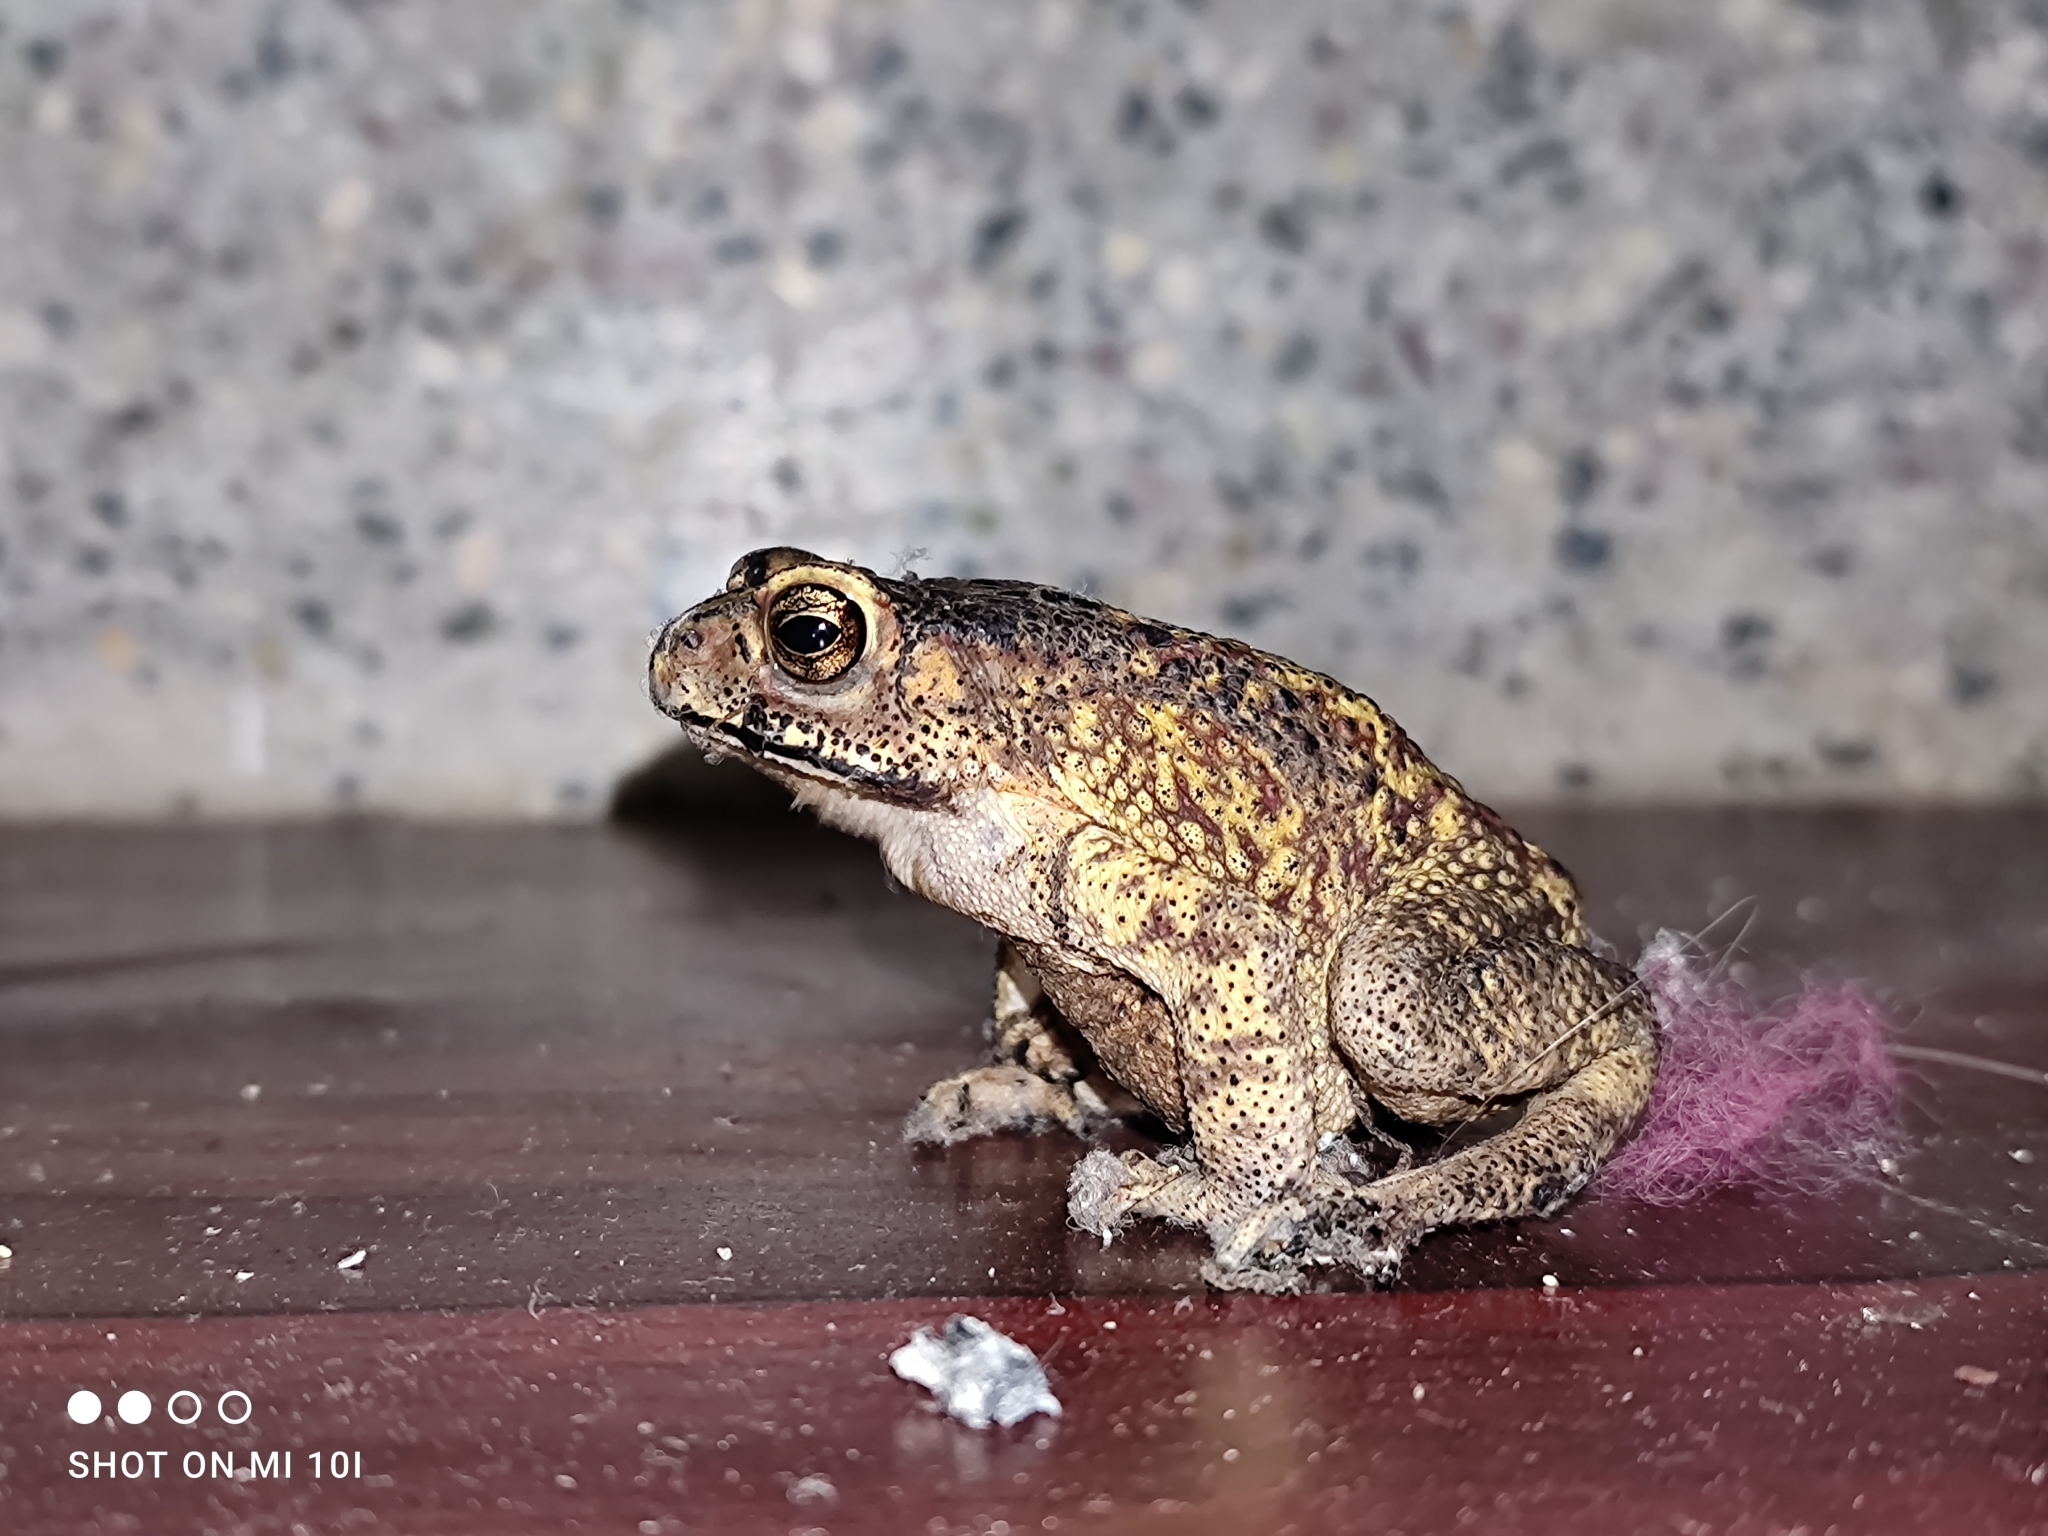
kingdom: Animalia
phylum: Chordata
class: Amphibia
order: Anura
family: Bufonidae
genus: Duttaphrynus
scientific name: Duttaphrynus melanostictus
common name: Common sunda toad
